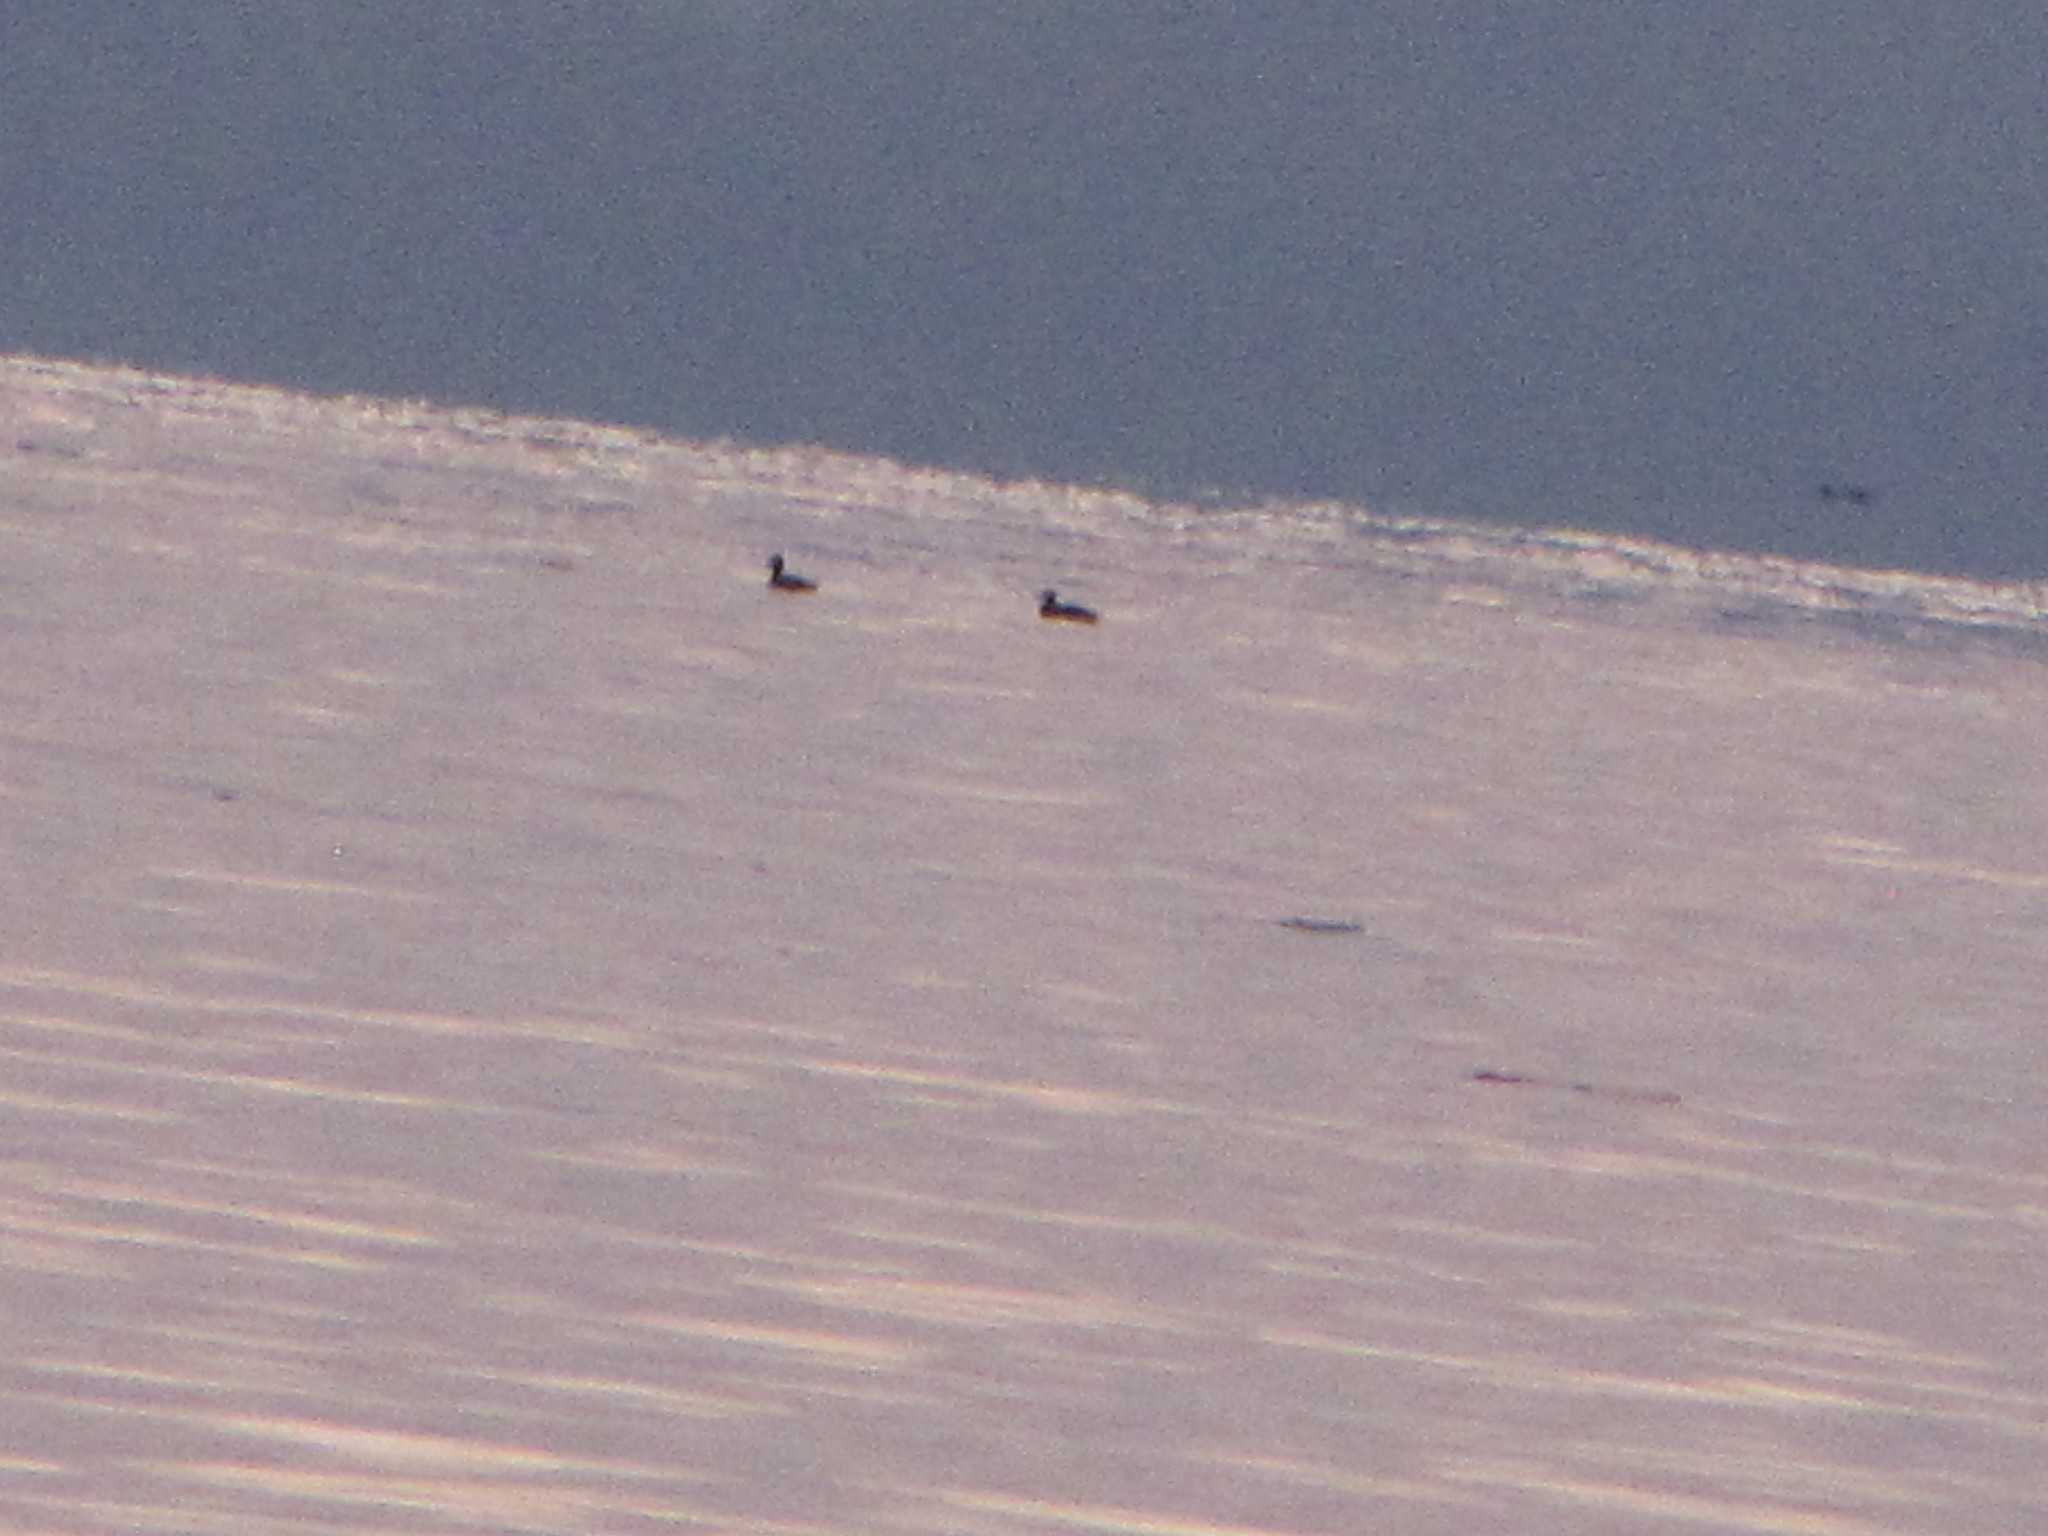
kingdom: Animalia
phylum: Chordata
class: Aves
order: Anseriformes
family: Anatidae
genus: Melanitta
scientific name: Melanitta
